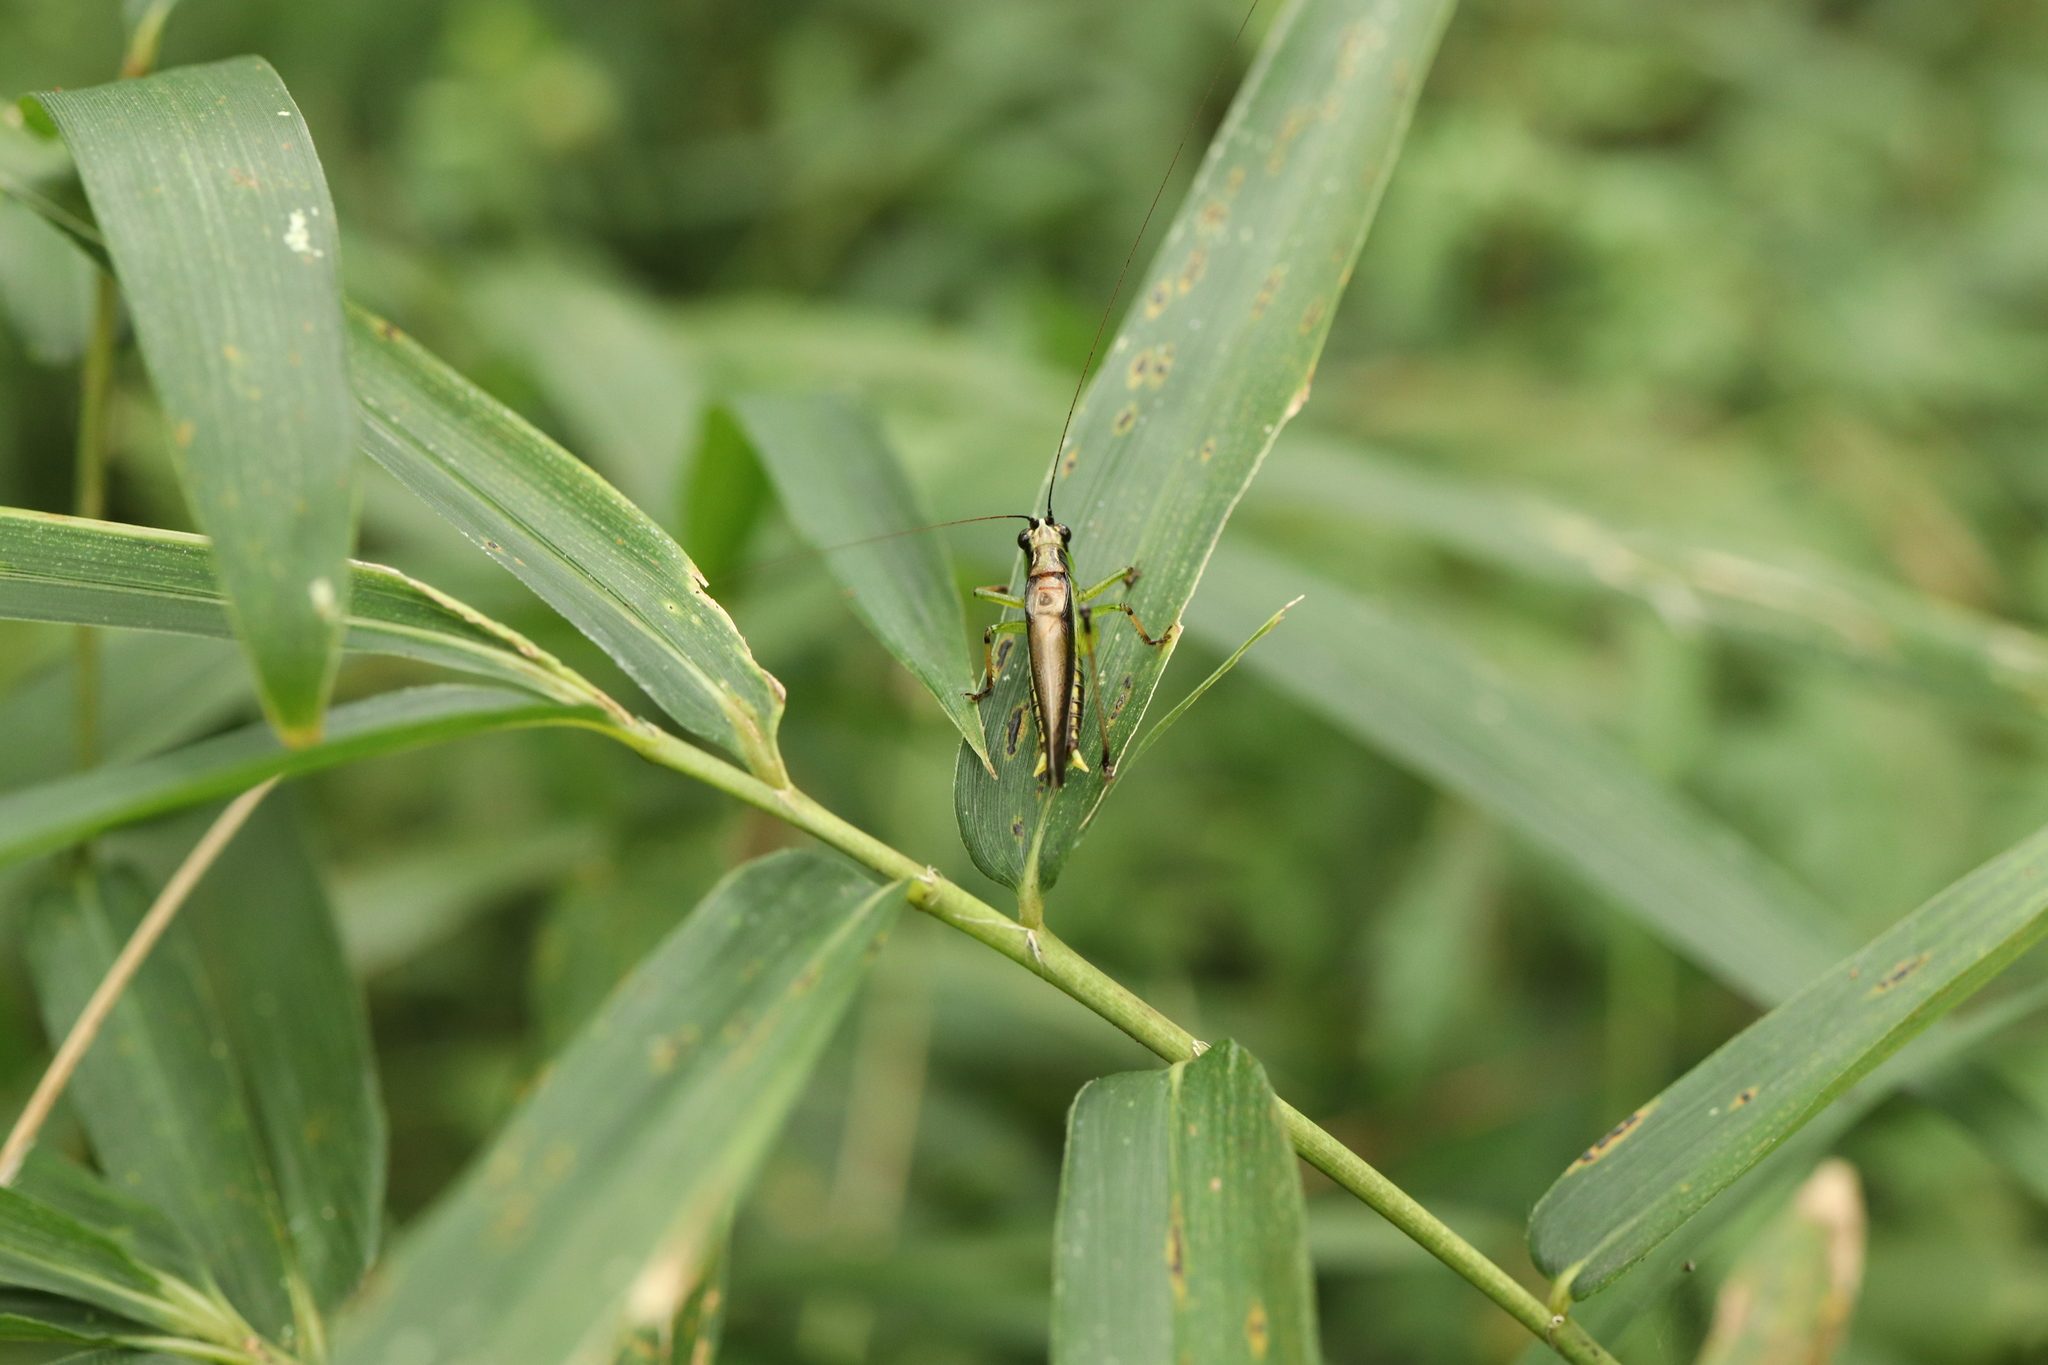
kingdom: Animalia
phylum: Arthropoda
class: Insecta
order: Orthoptera
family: Tettigoniidae
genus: Conocephalus
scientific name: Conocephalus melaenus
